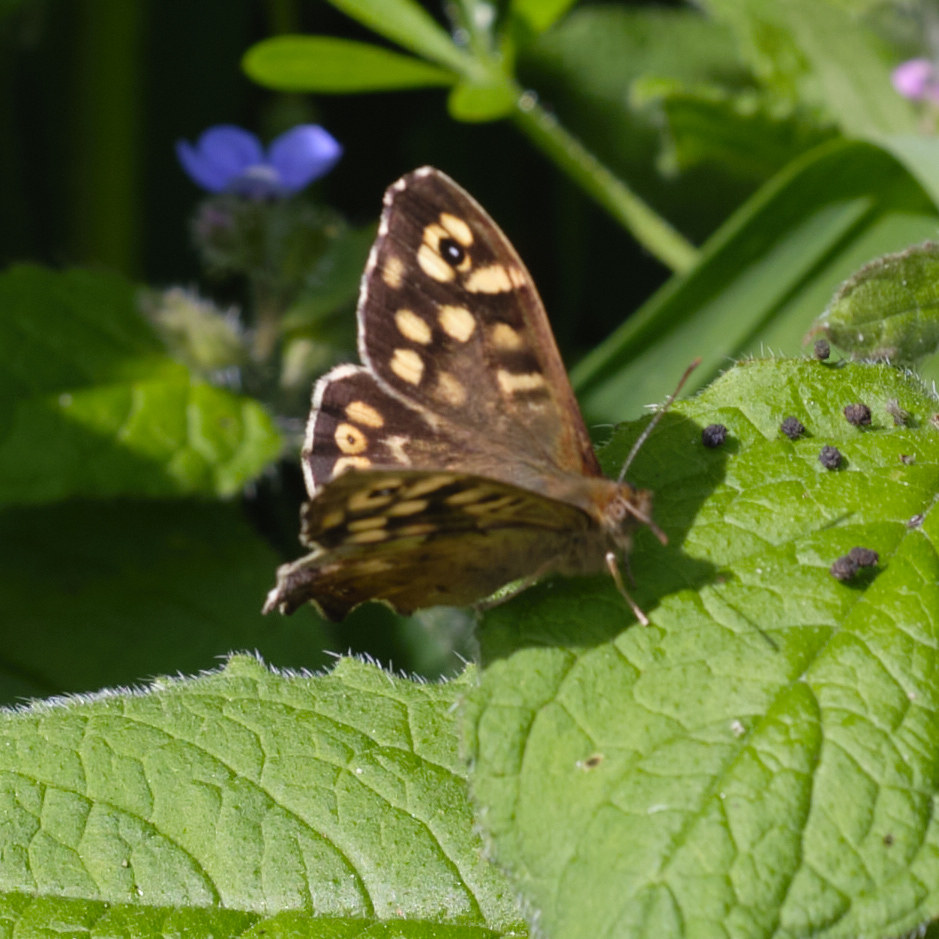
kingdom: Animalia
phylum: Arthropoda
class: Insecta
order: Lepidoptera
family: Nymphalidae
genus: Pararge
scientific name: Pararge aegeria
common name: Speckled wood
